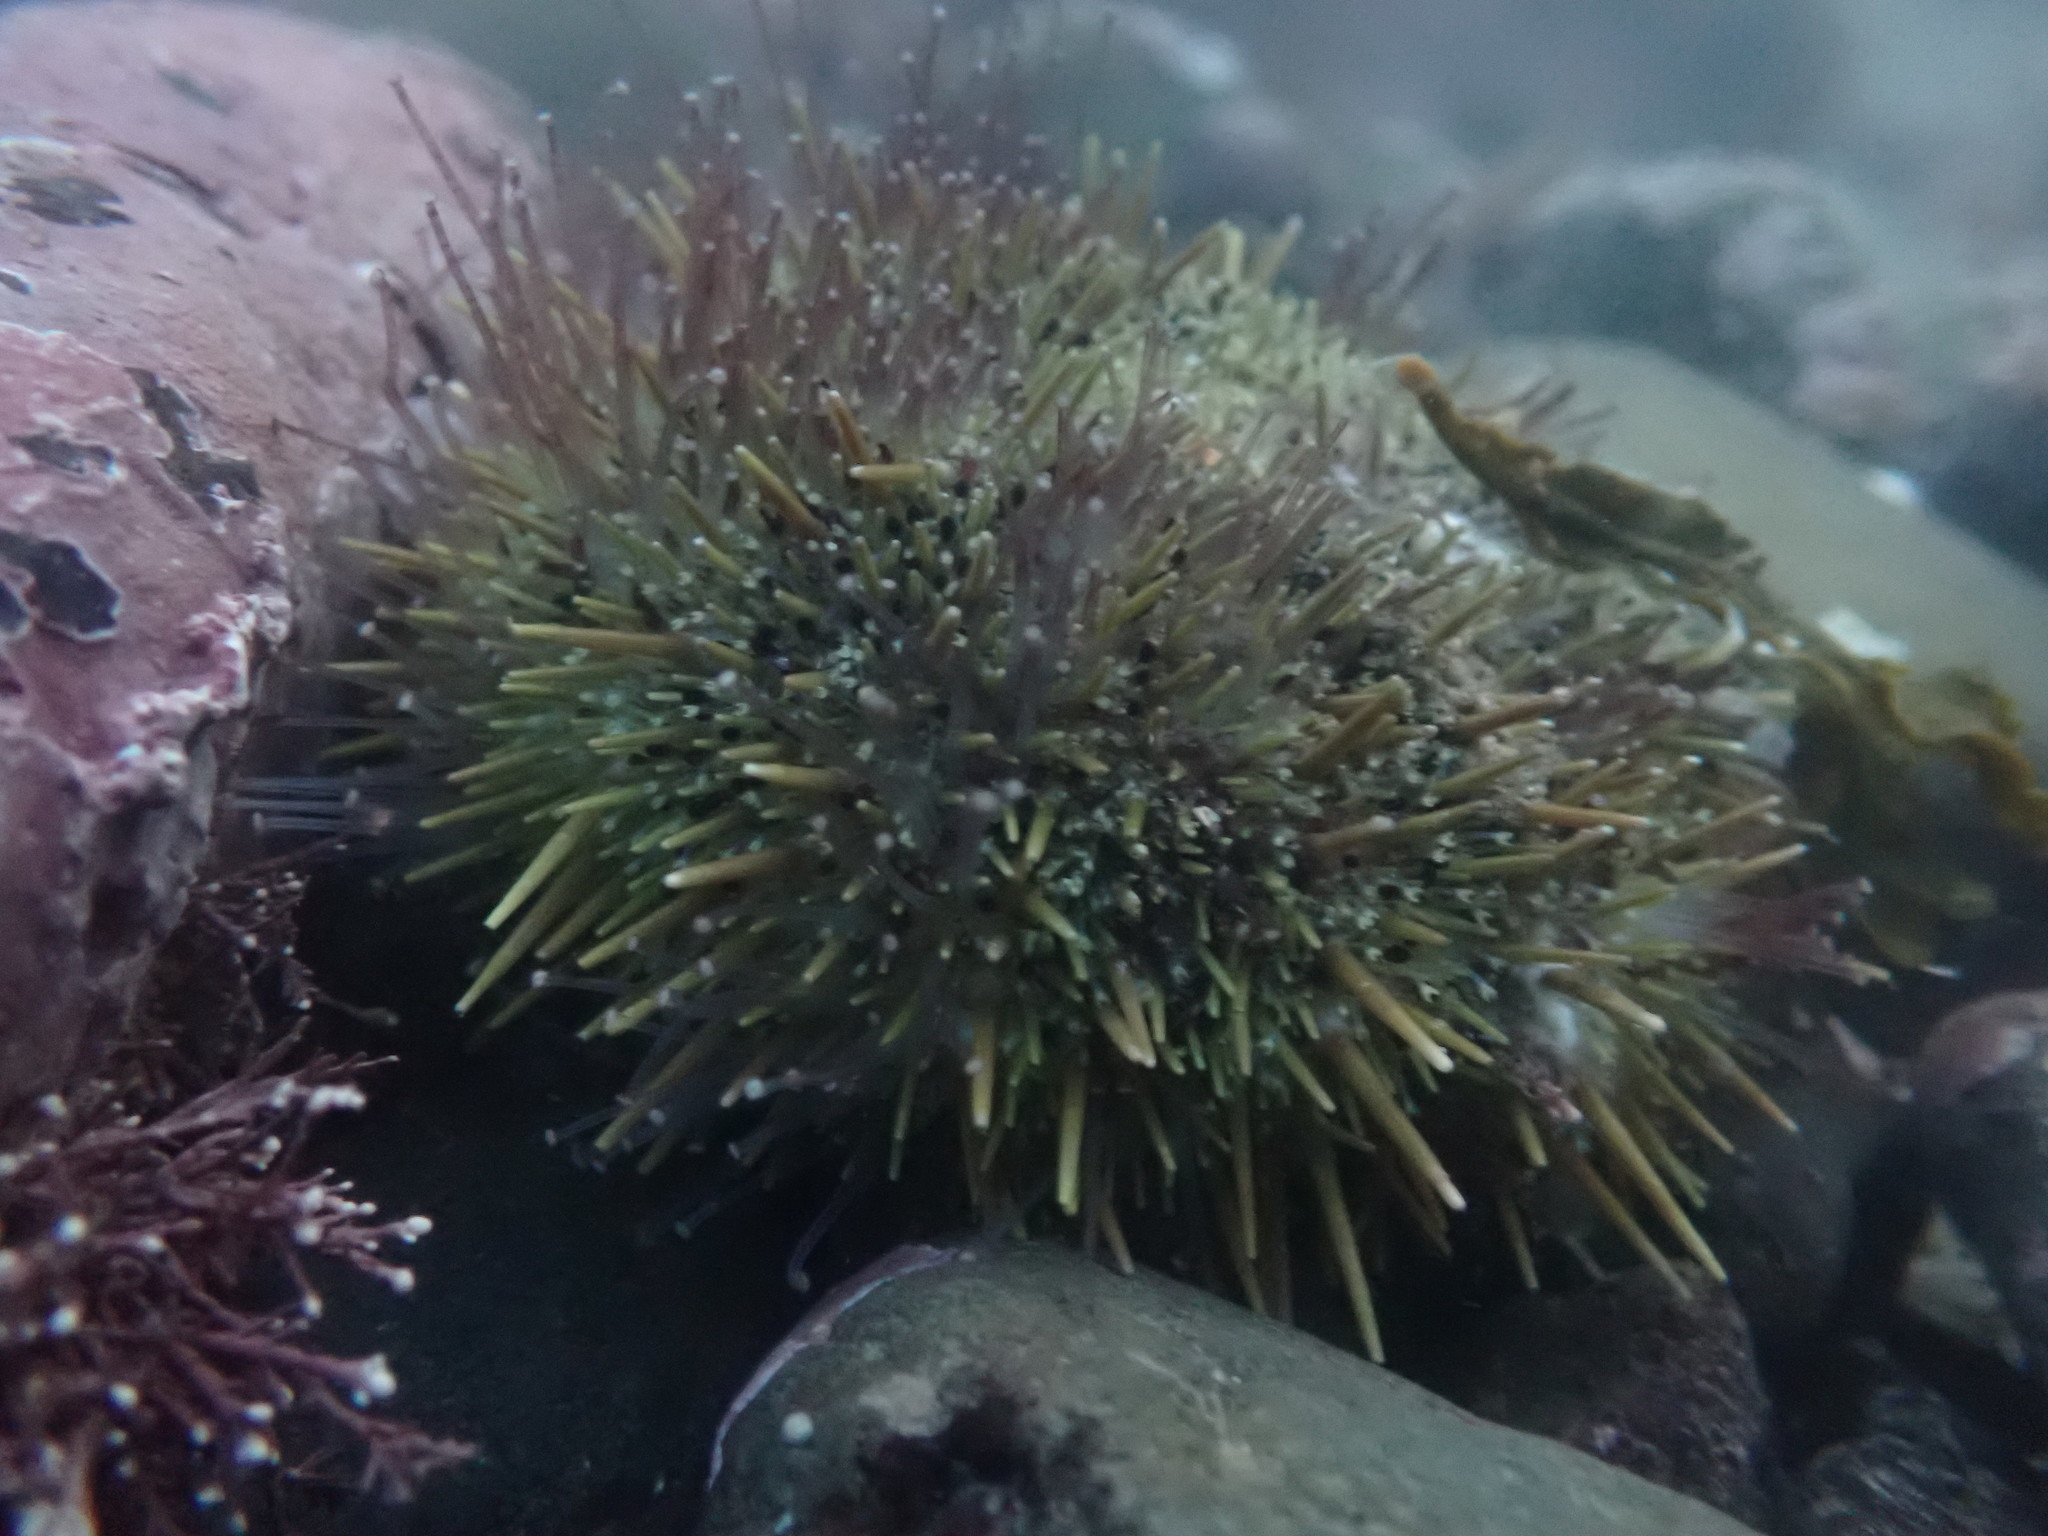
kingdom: Animalia
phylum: Echinodermata
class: Echinoidea
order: Camarodonta
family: Strongylocentrotidae
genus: Strongylocentrotus
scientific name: Strongylocentrotus droebachiensis
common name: Northern sea urchin
